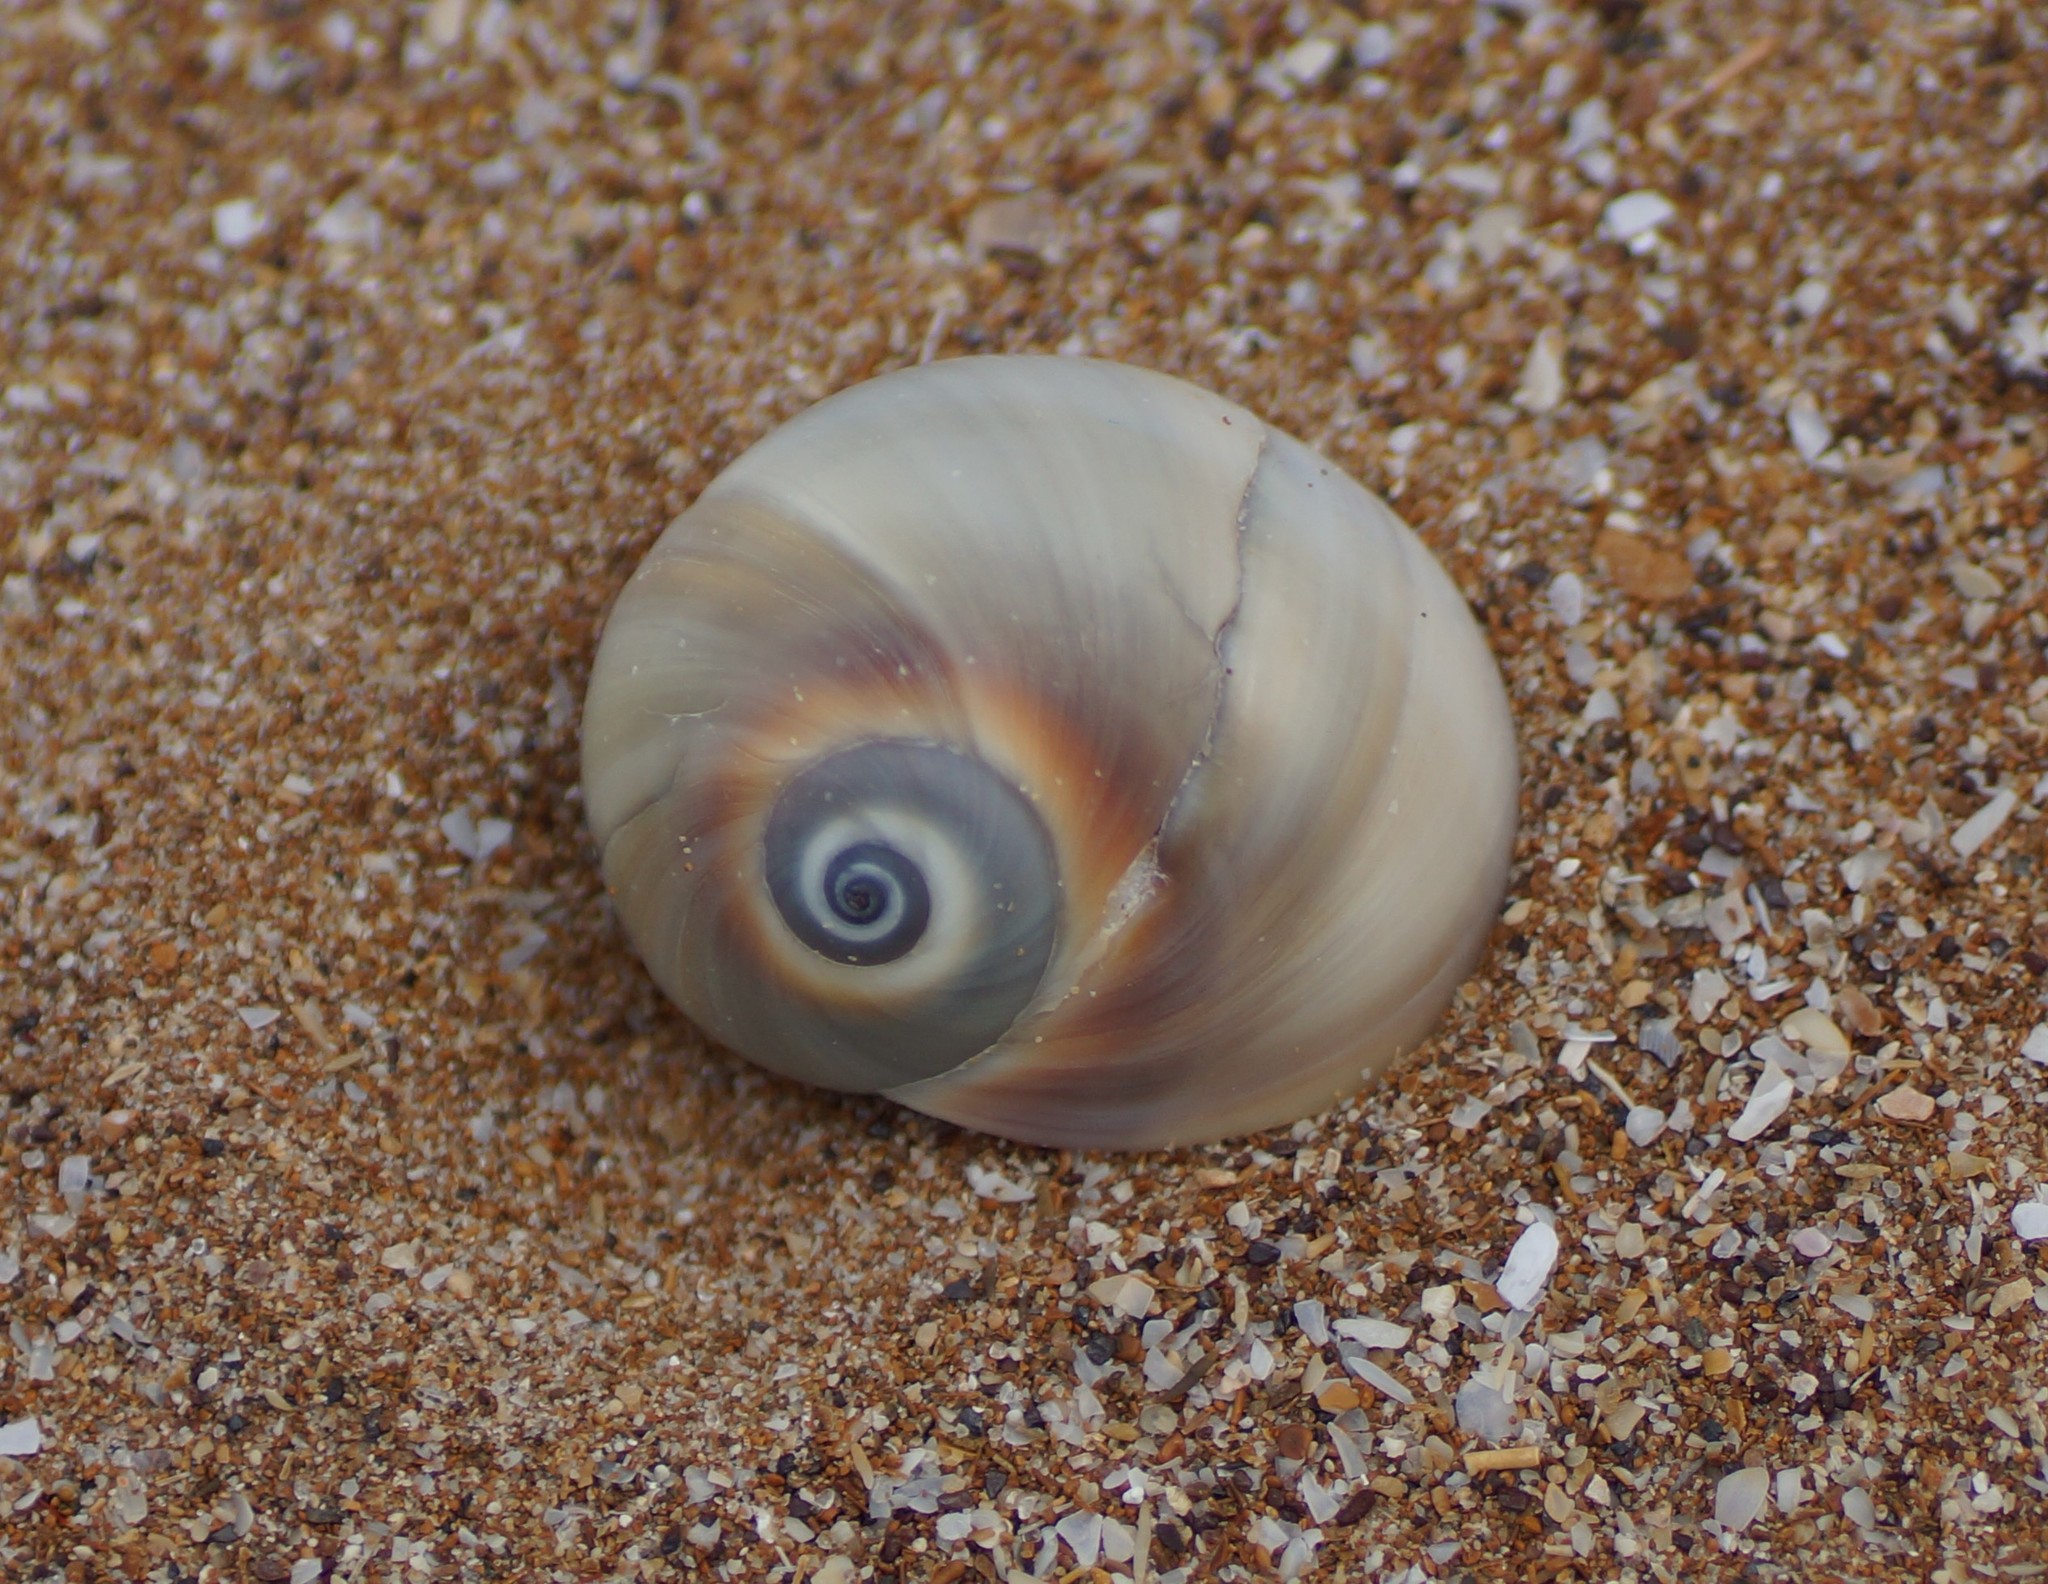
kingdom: Animalia
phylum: Mollusca
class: Gastropoda
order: Littorinimorpha
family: Naticidae
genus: Neverita
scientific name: Neverita didyma
